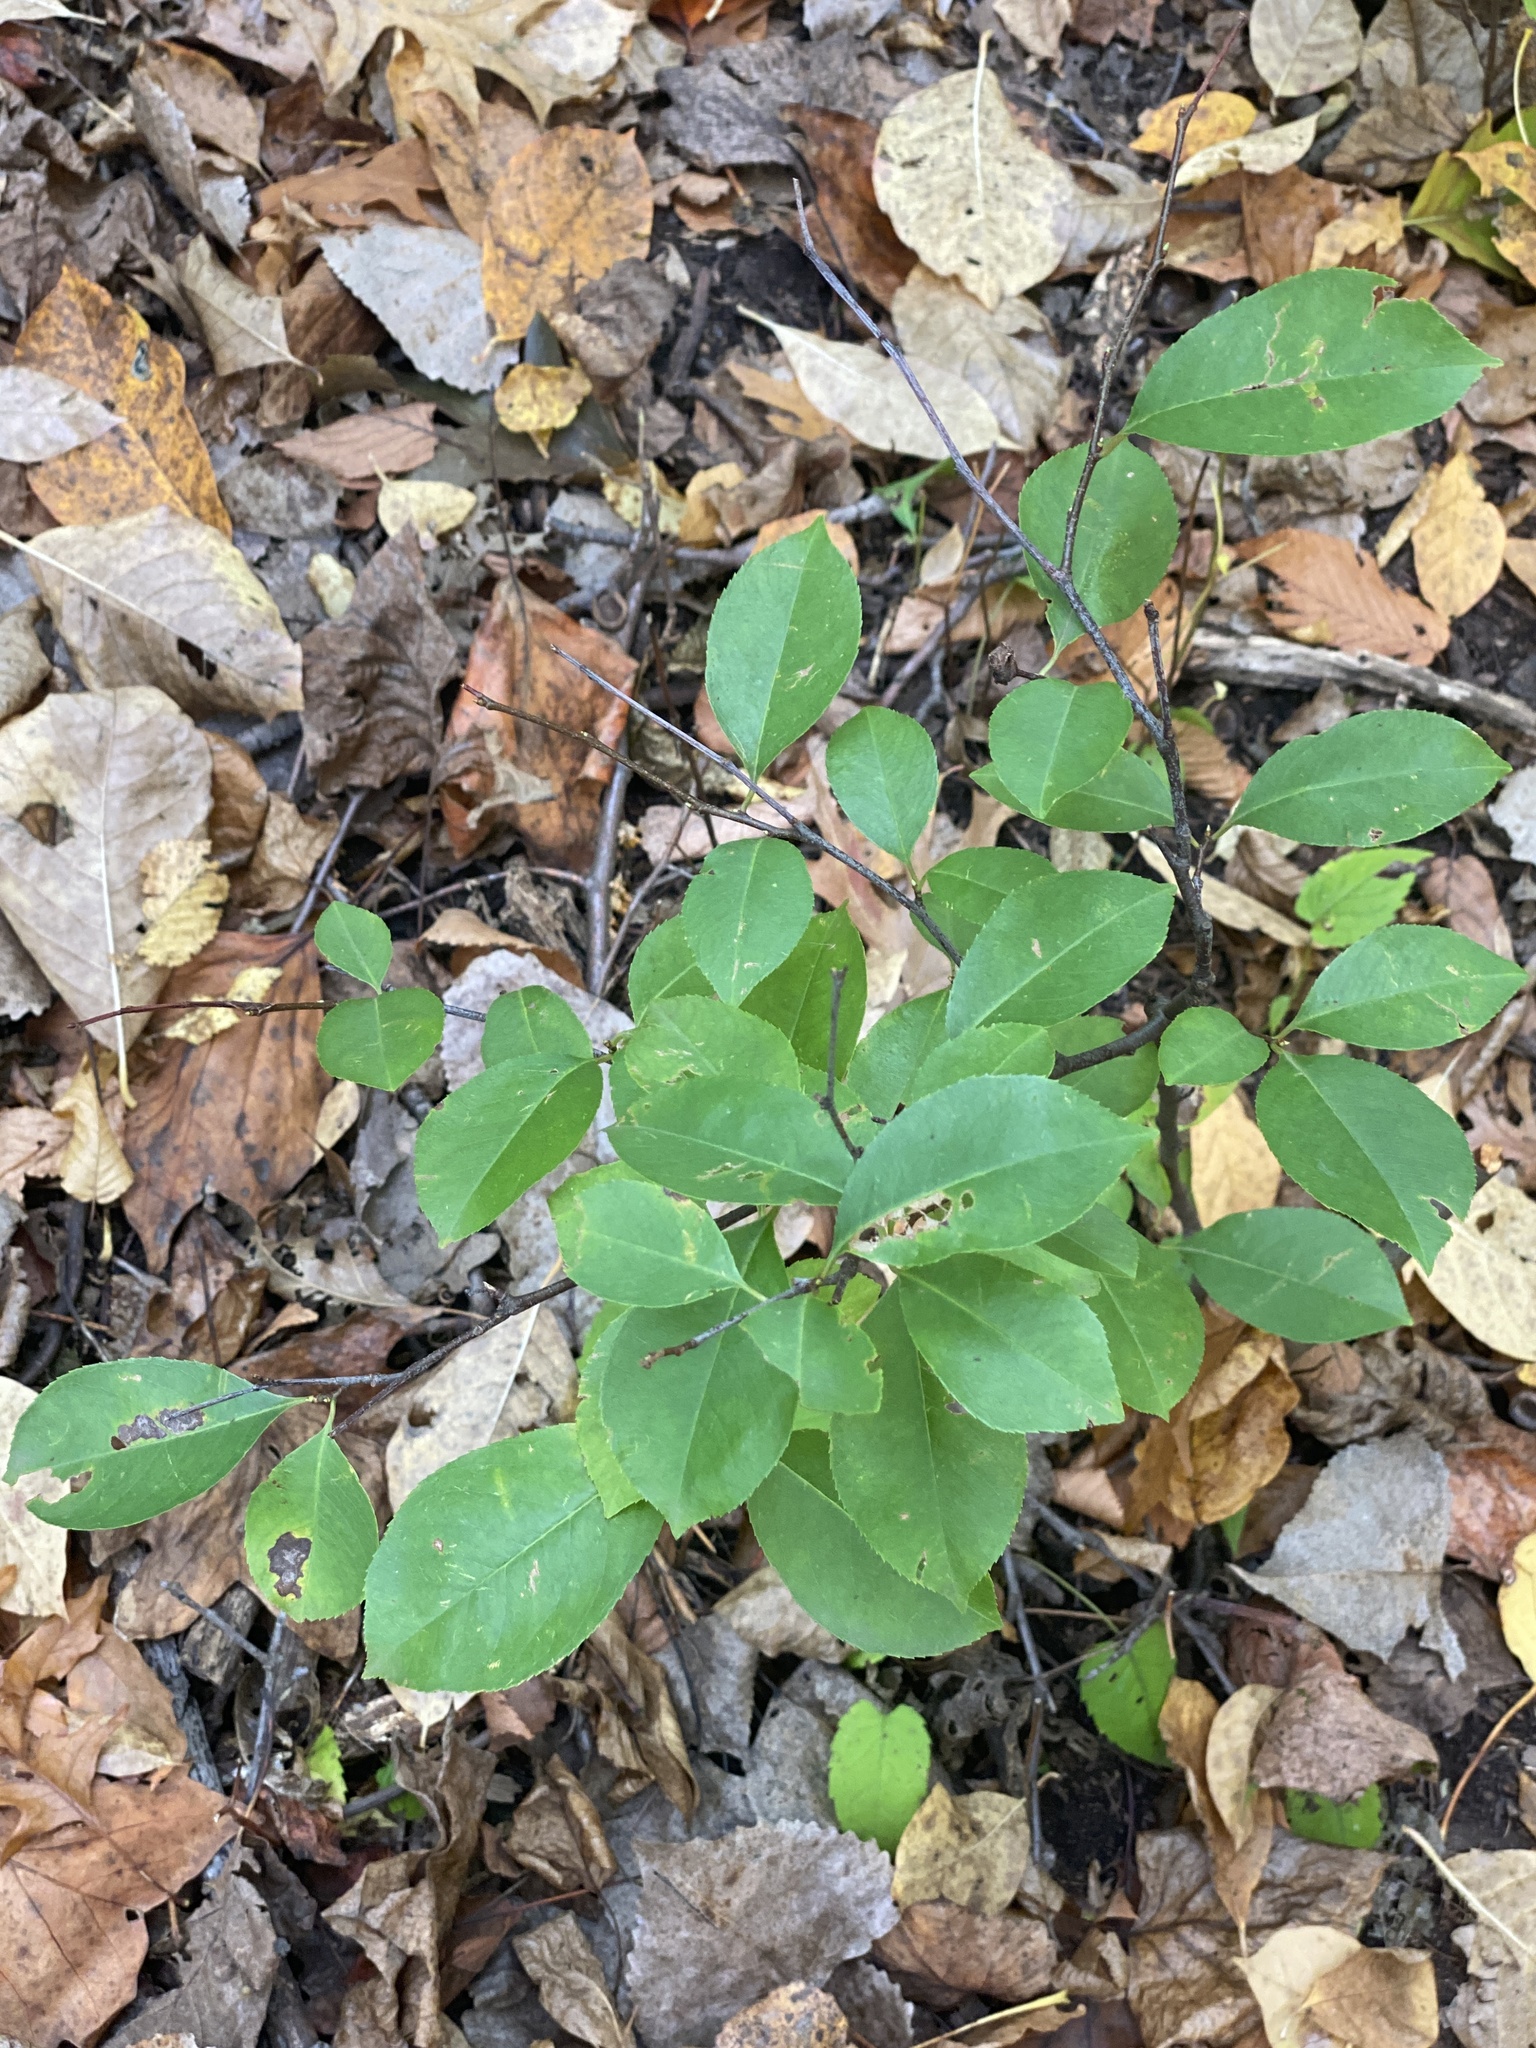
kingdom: Plantae
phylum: Tracheophyta
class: Magnoliopsida
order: Rosales
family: Rosaceae
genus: Prunus
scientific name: Prunus serotina
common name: Black cherry
